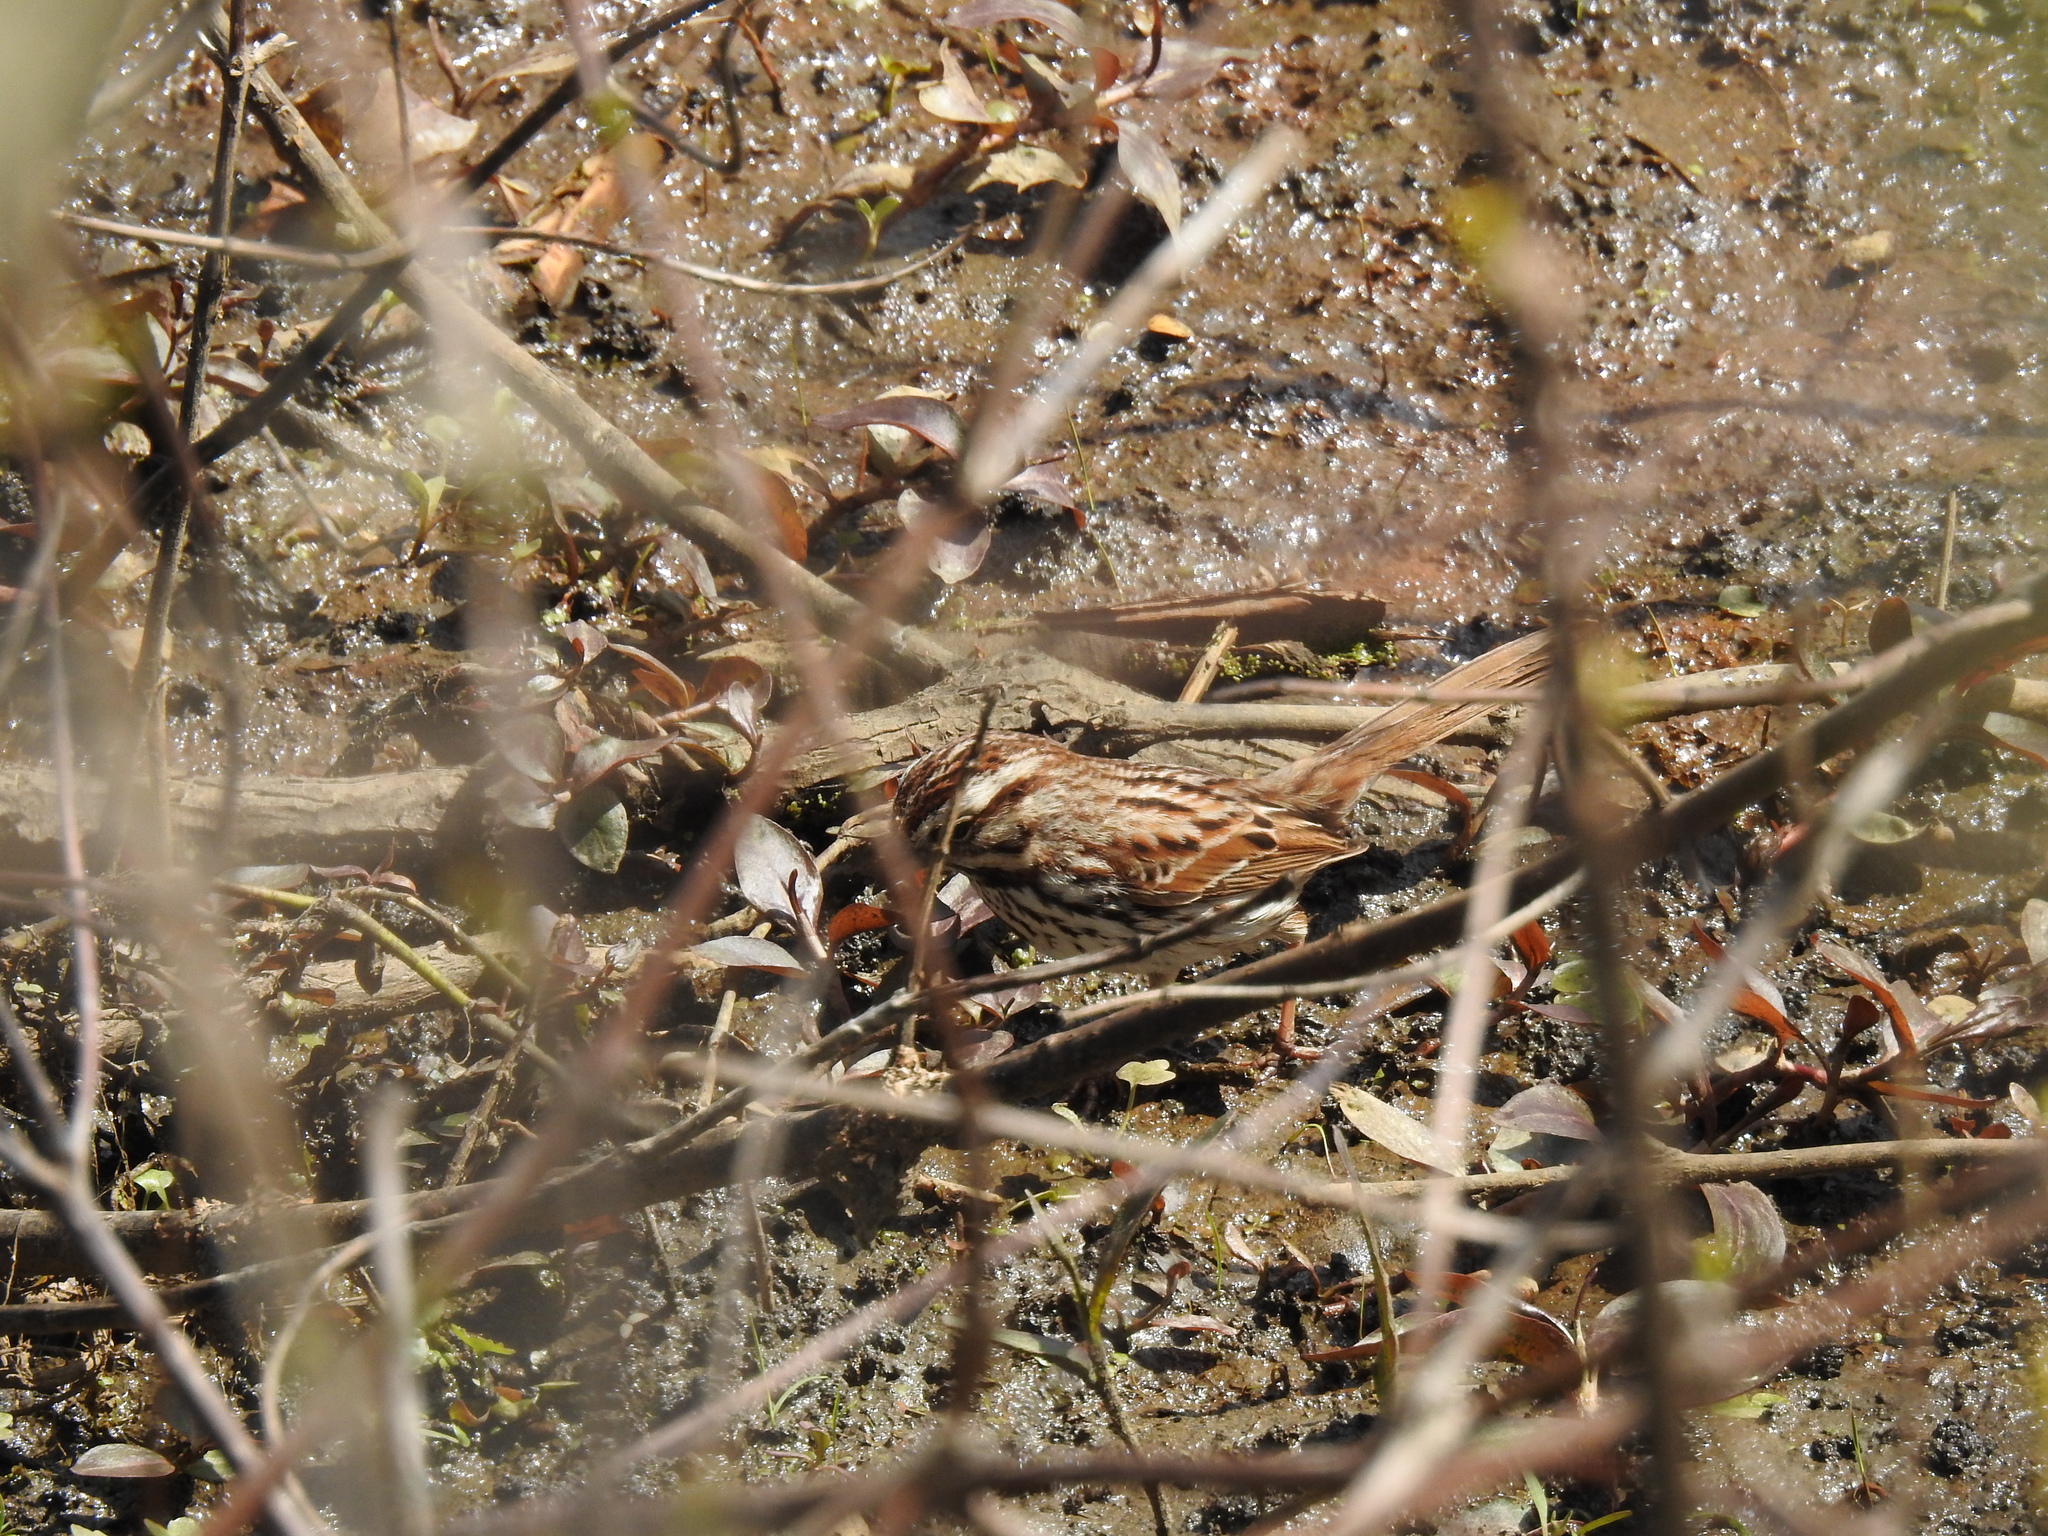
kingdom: Animalia
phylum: Chordata
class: Aves
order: Passeriformes
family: Passerellidae
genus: Melospiza
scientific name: Melospiza melodia
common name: Song sparrow
